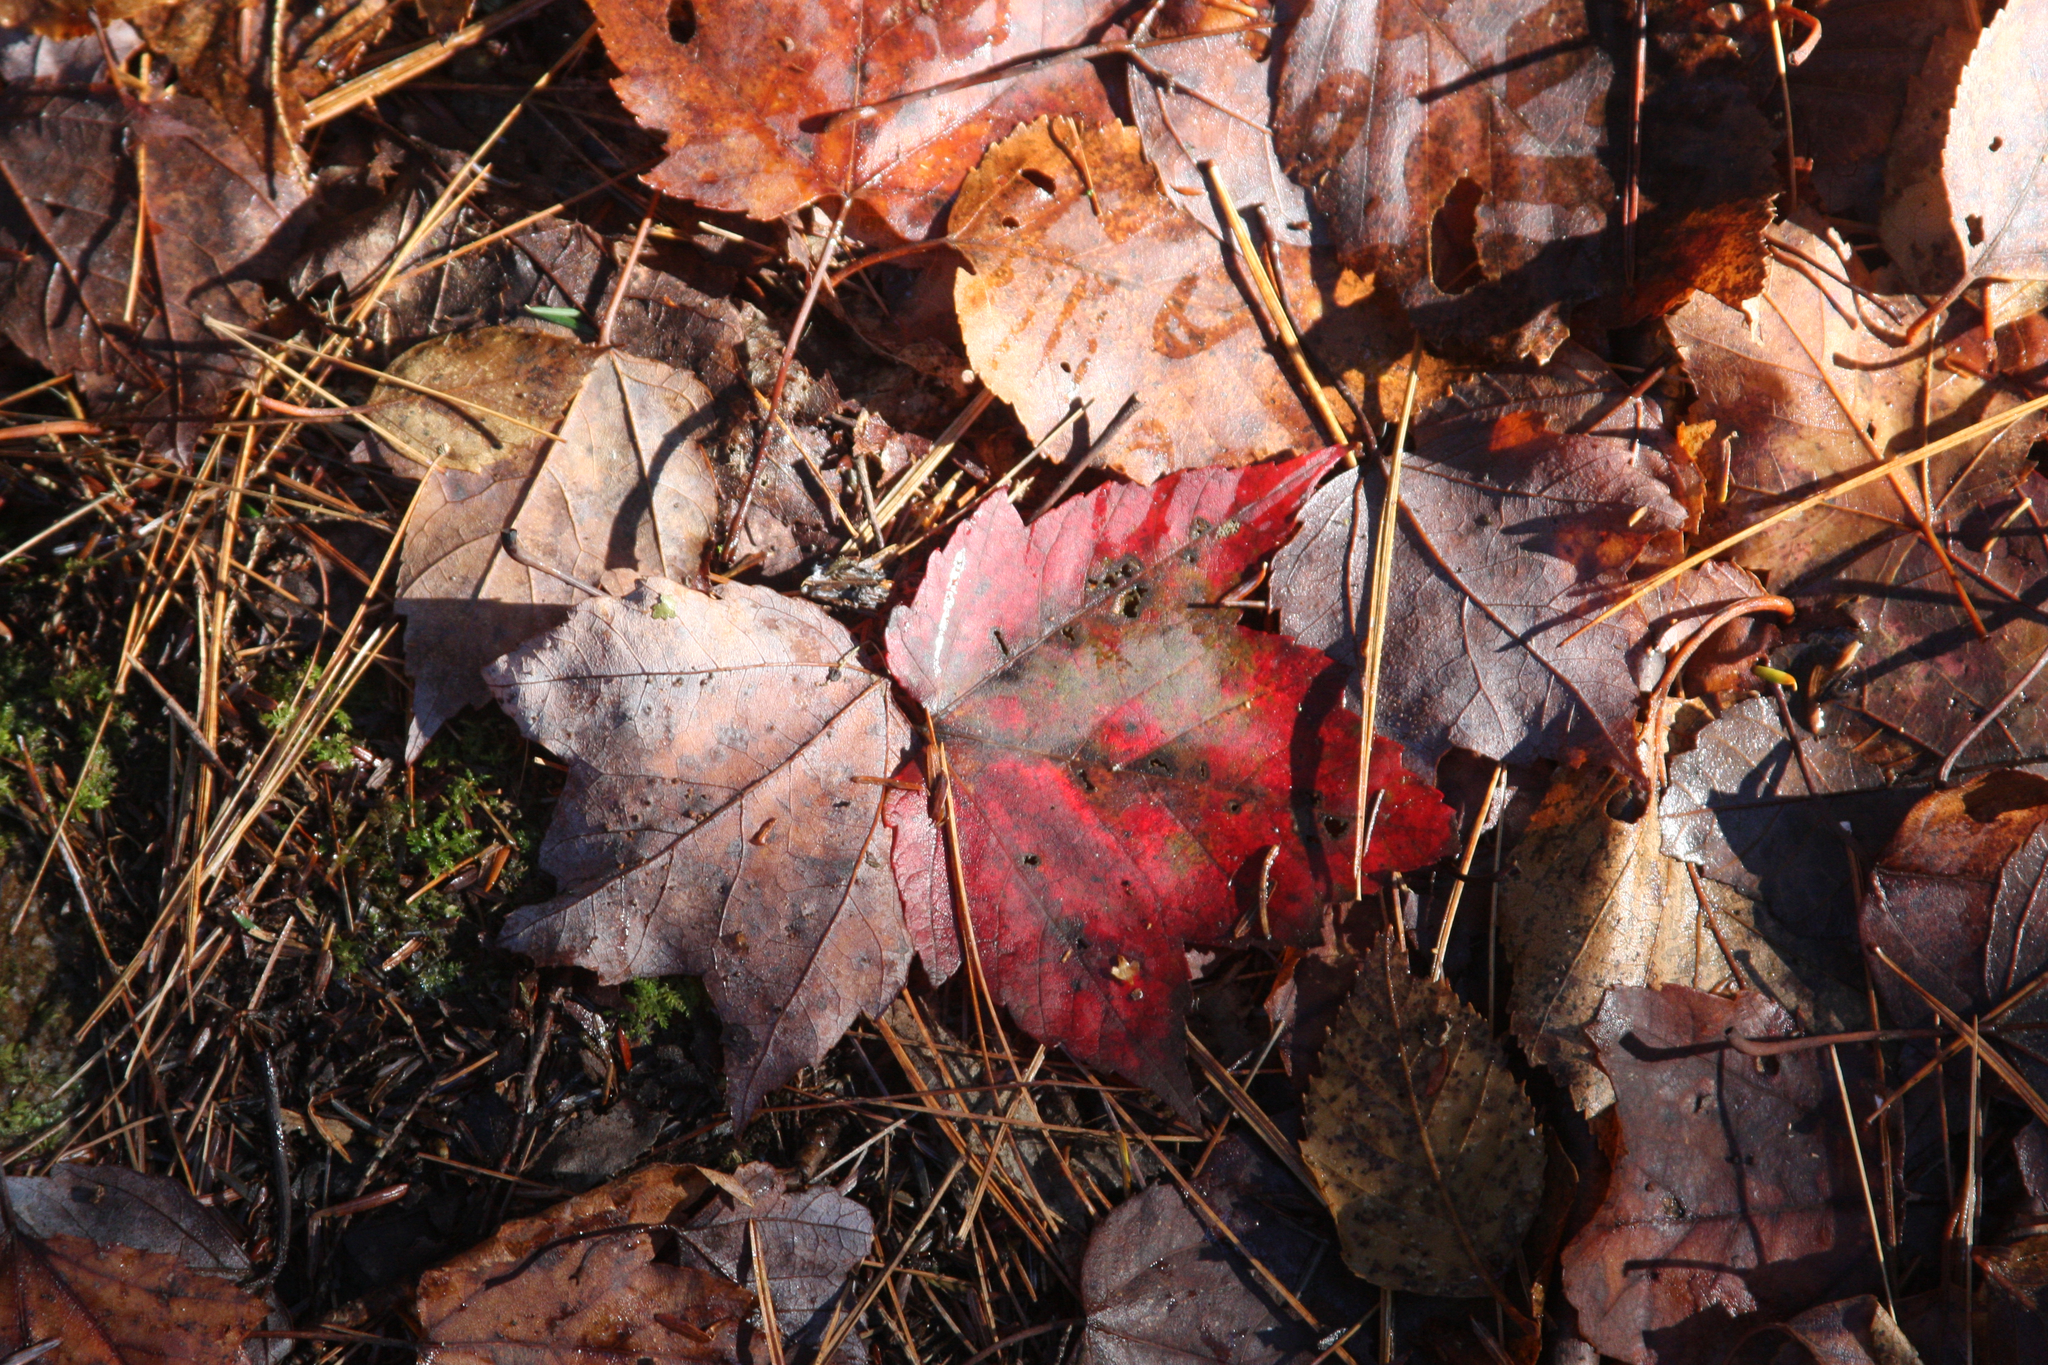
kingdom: Plantae
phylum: Tracheophyta
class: Magnoliopsida
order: Sapindales
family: Sapindaceae
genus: Acer
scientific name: Acer rubrum
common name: Red maple
